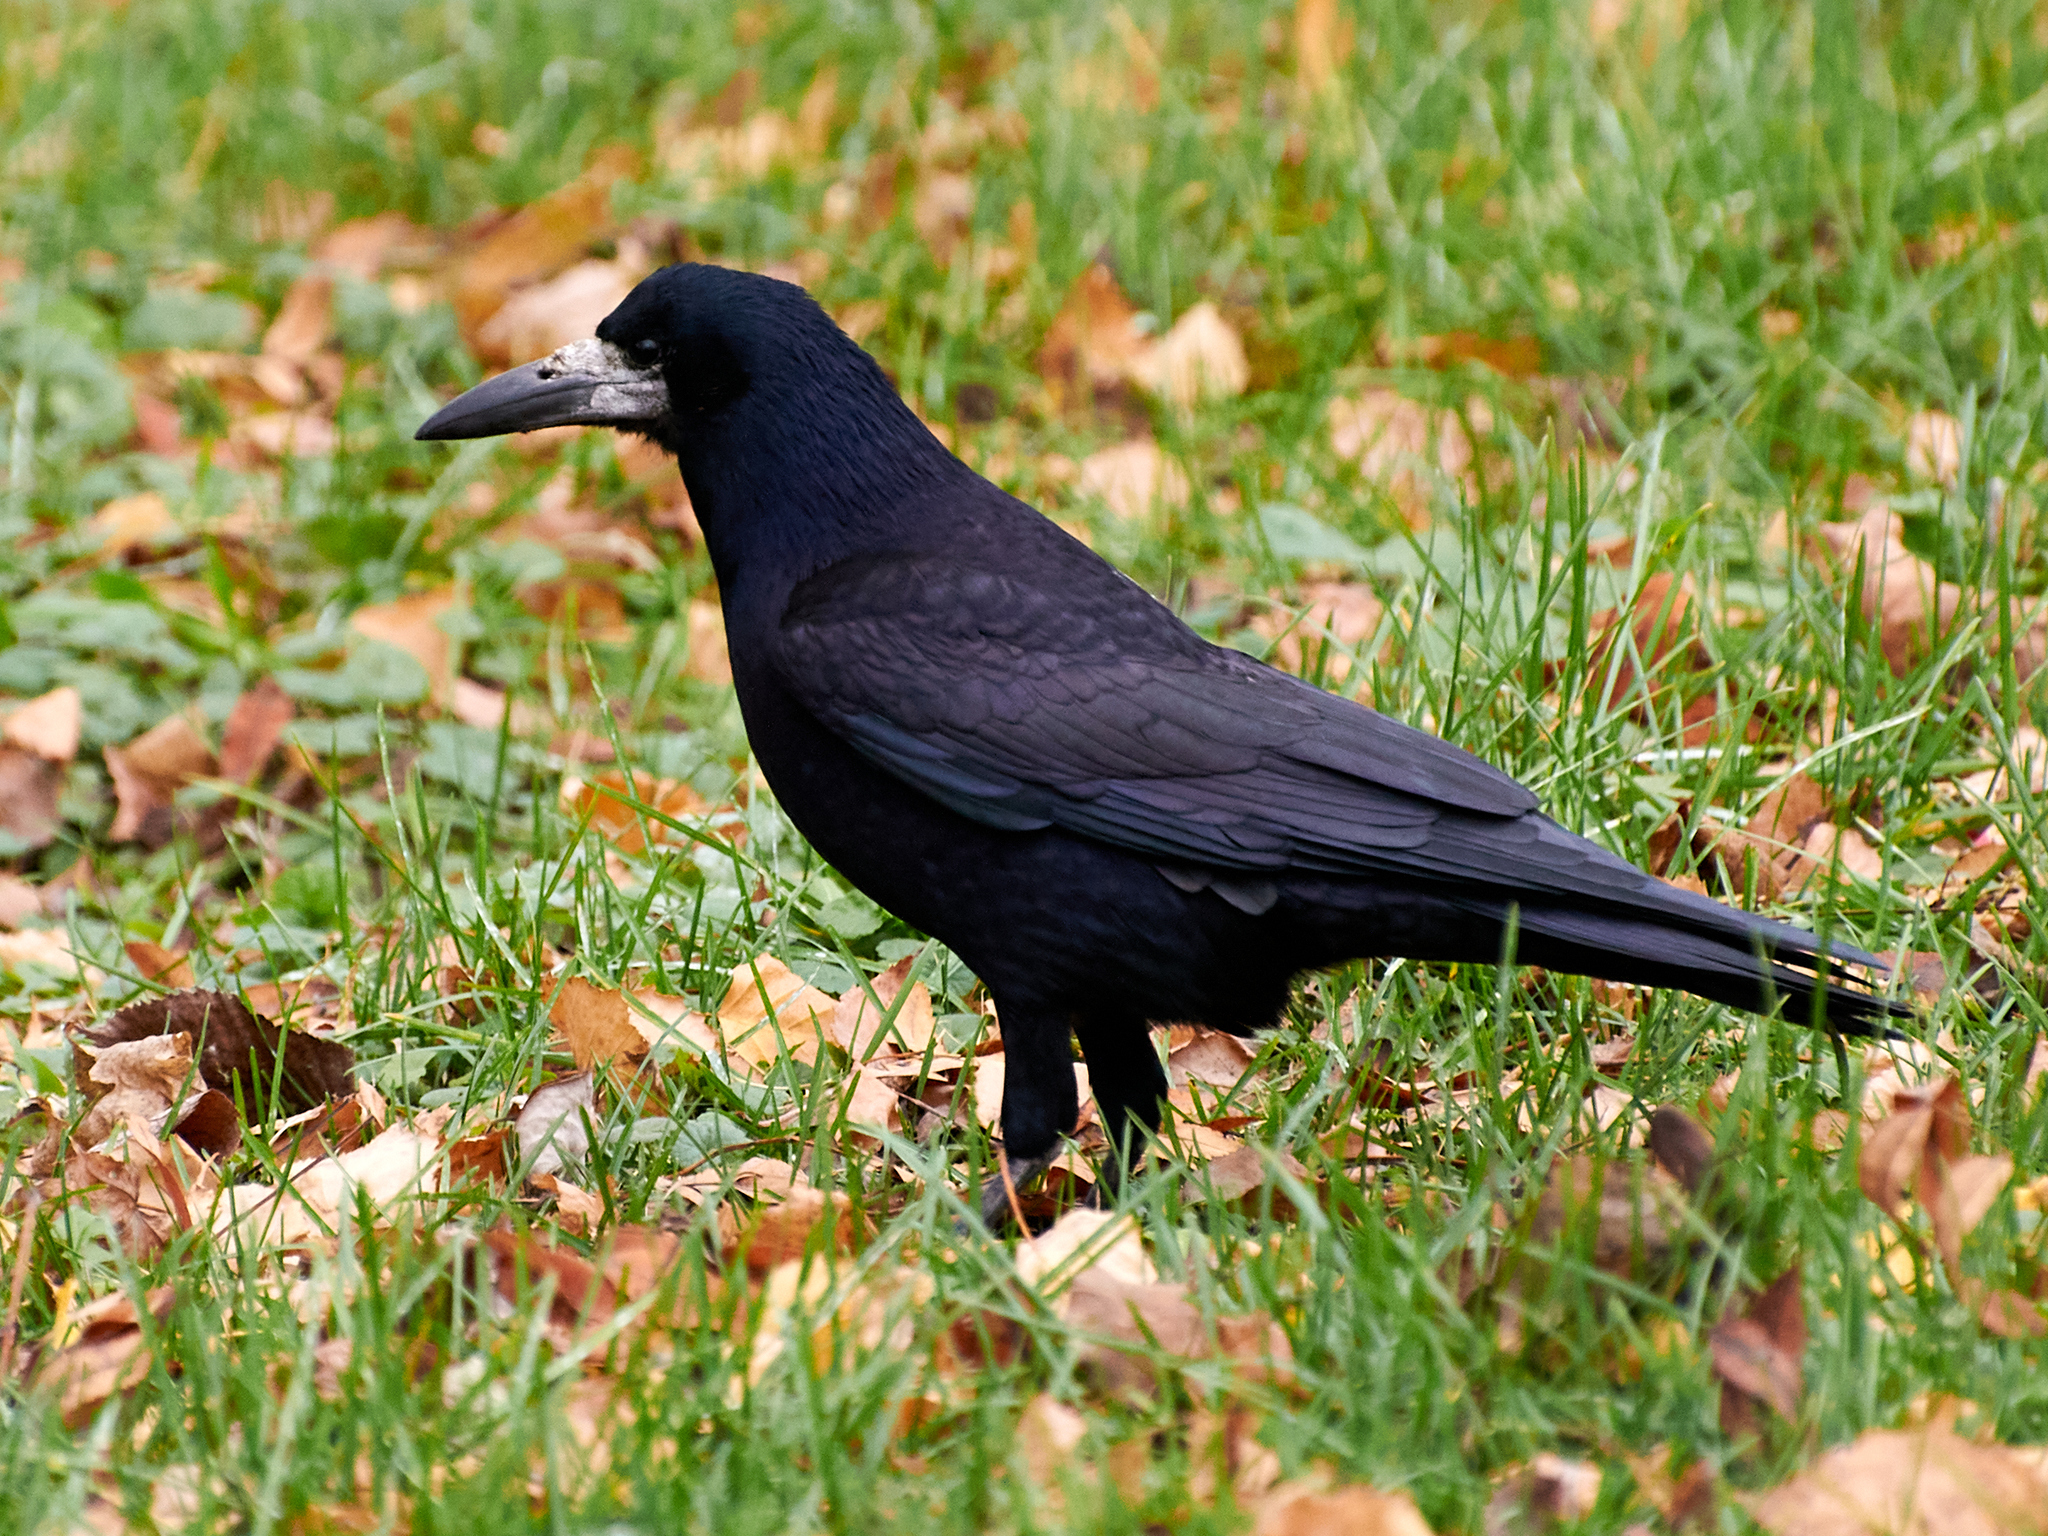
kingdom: Animalia
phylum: Chordata
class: Aves
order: Passeriformes
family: Corvidae
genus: Corvus
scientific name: Corvus frugilegus
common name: Rook
